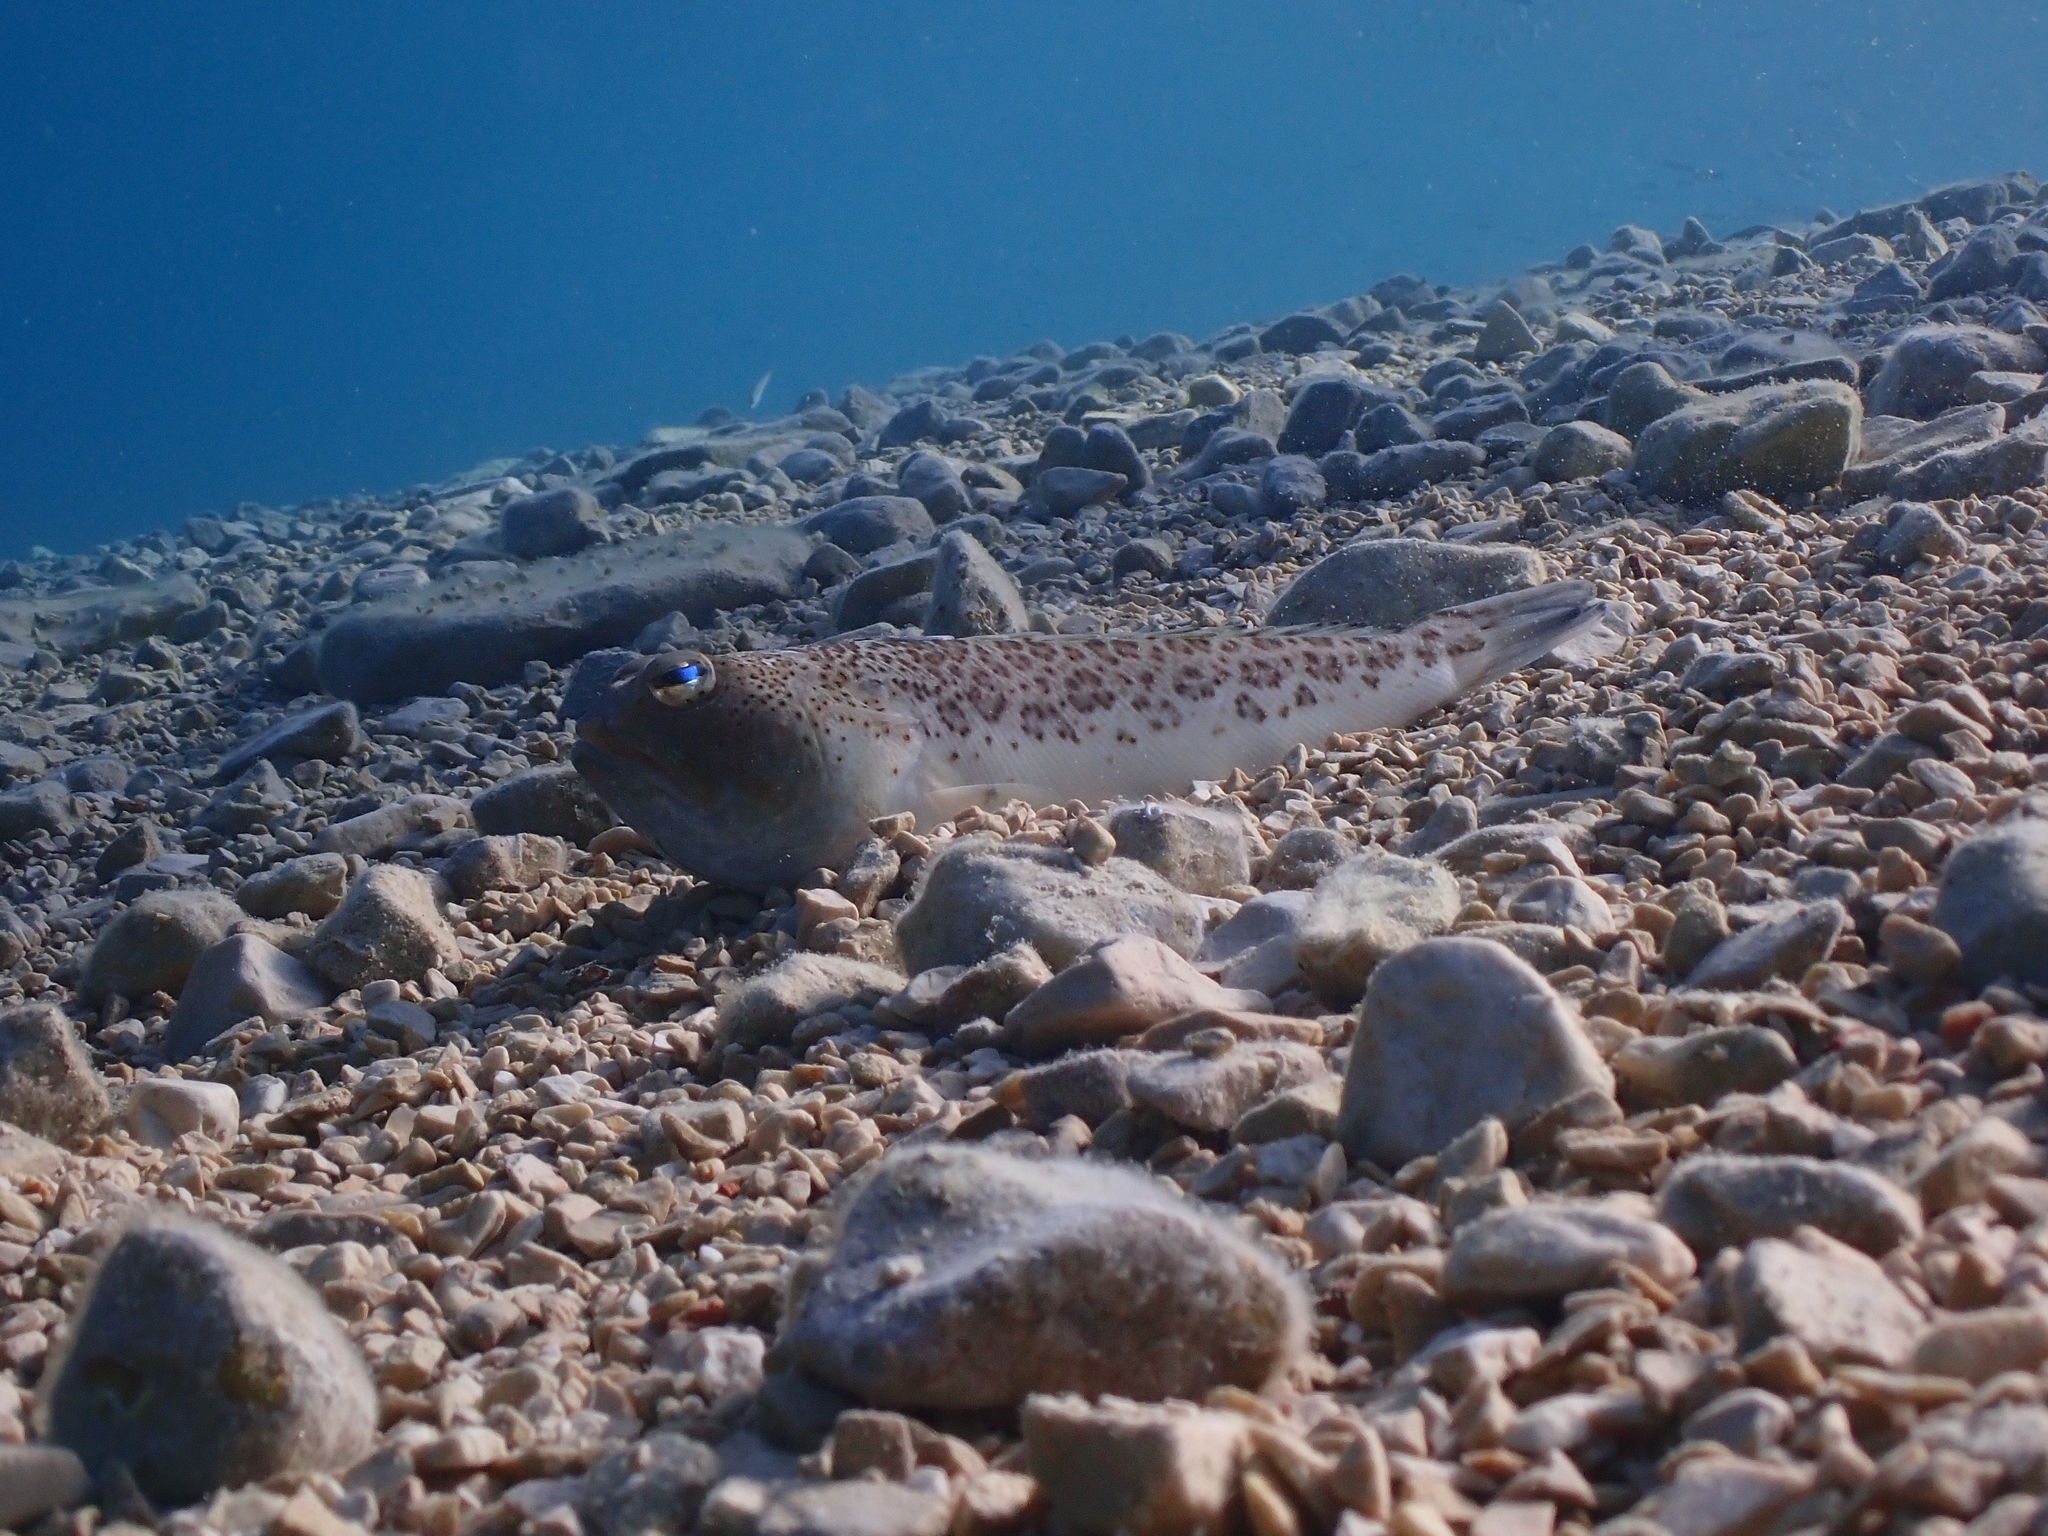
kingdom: Animalia
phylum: Chordata
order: Perciformes
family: Trachinidae
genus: Trachinus
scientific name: Trachinus radiatus
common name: Starry weever
